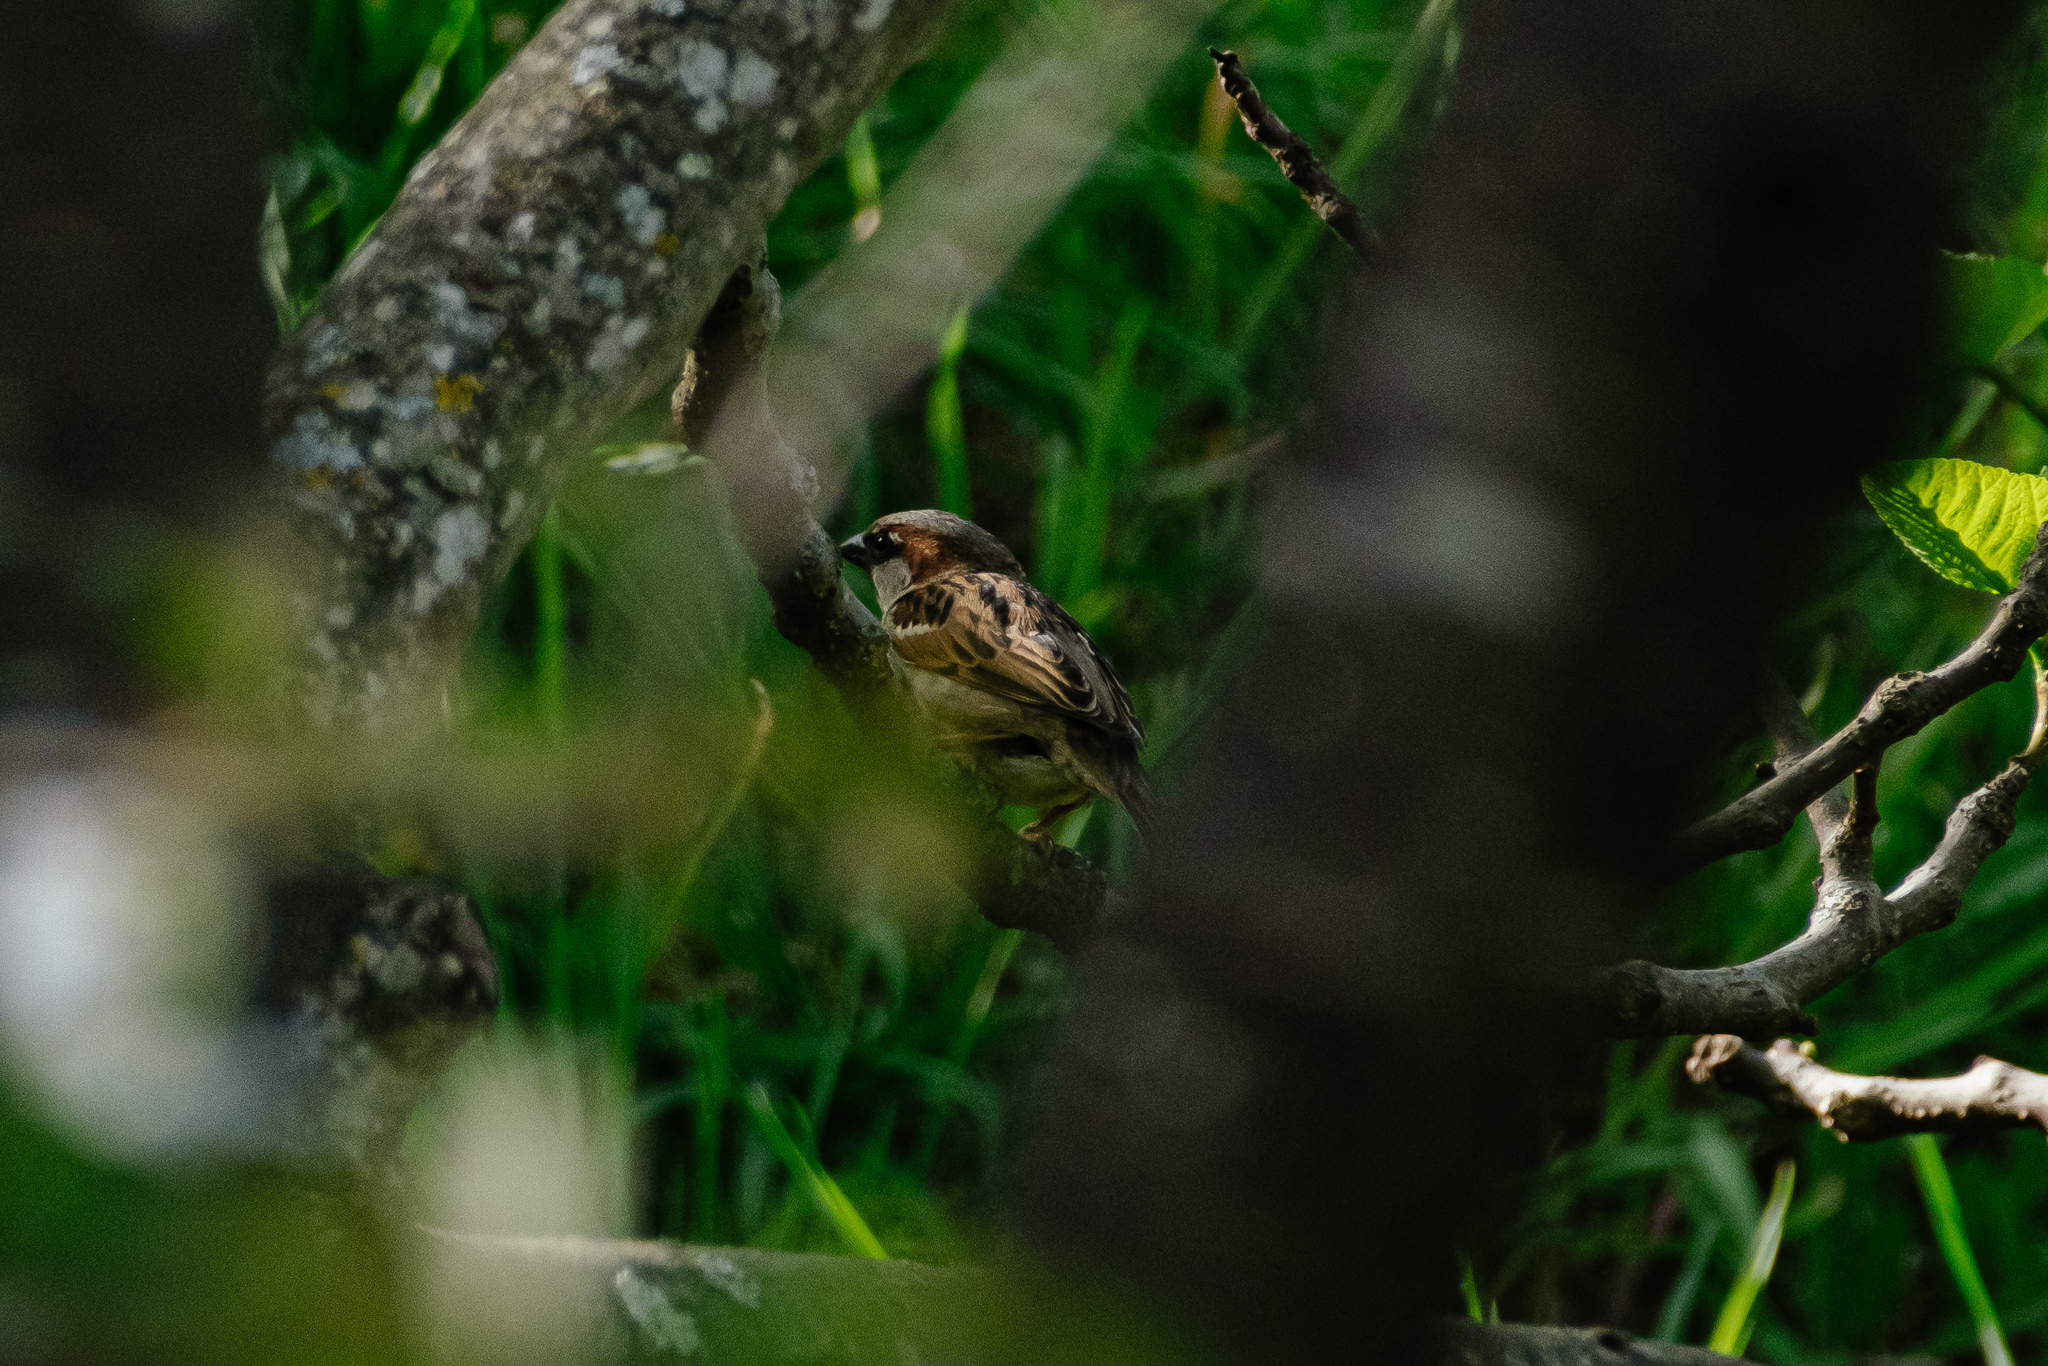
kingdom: Animalia
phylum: Chordata
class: Aves
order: Passeriformes
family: Passeridae
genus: Passer
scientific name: Passer domesticus
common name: House sparrow
